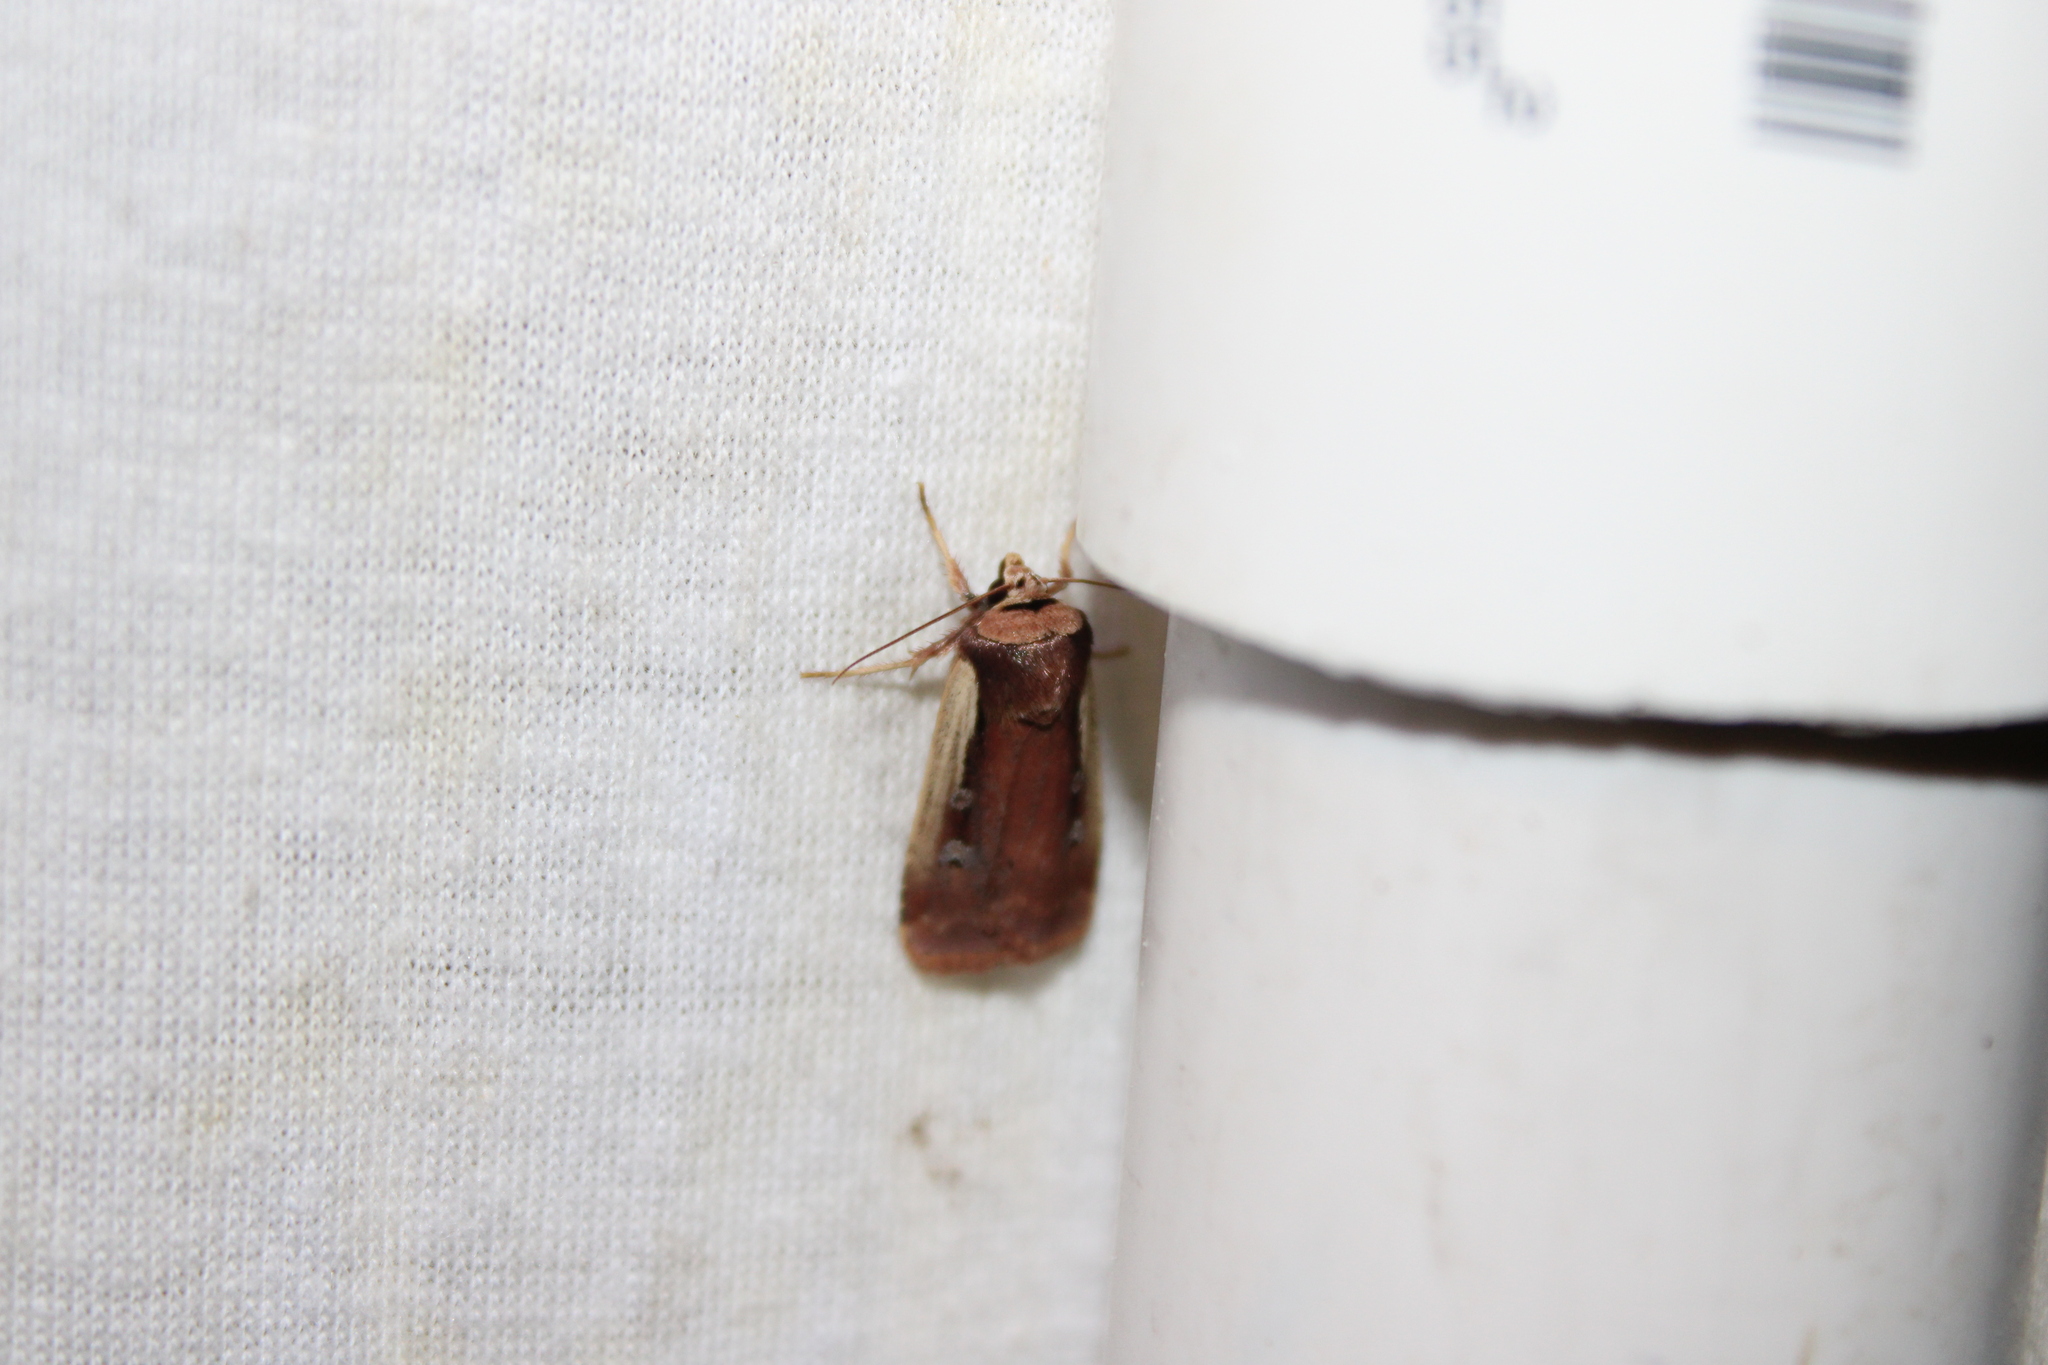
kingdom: Animalia
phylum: Arthropoda
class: Insecta
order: Lepidoptera
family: Noctuidae
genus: Ochropleura
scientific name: Ochropleura implecta
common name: Flame-shouldered dart
